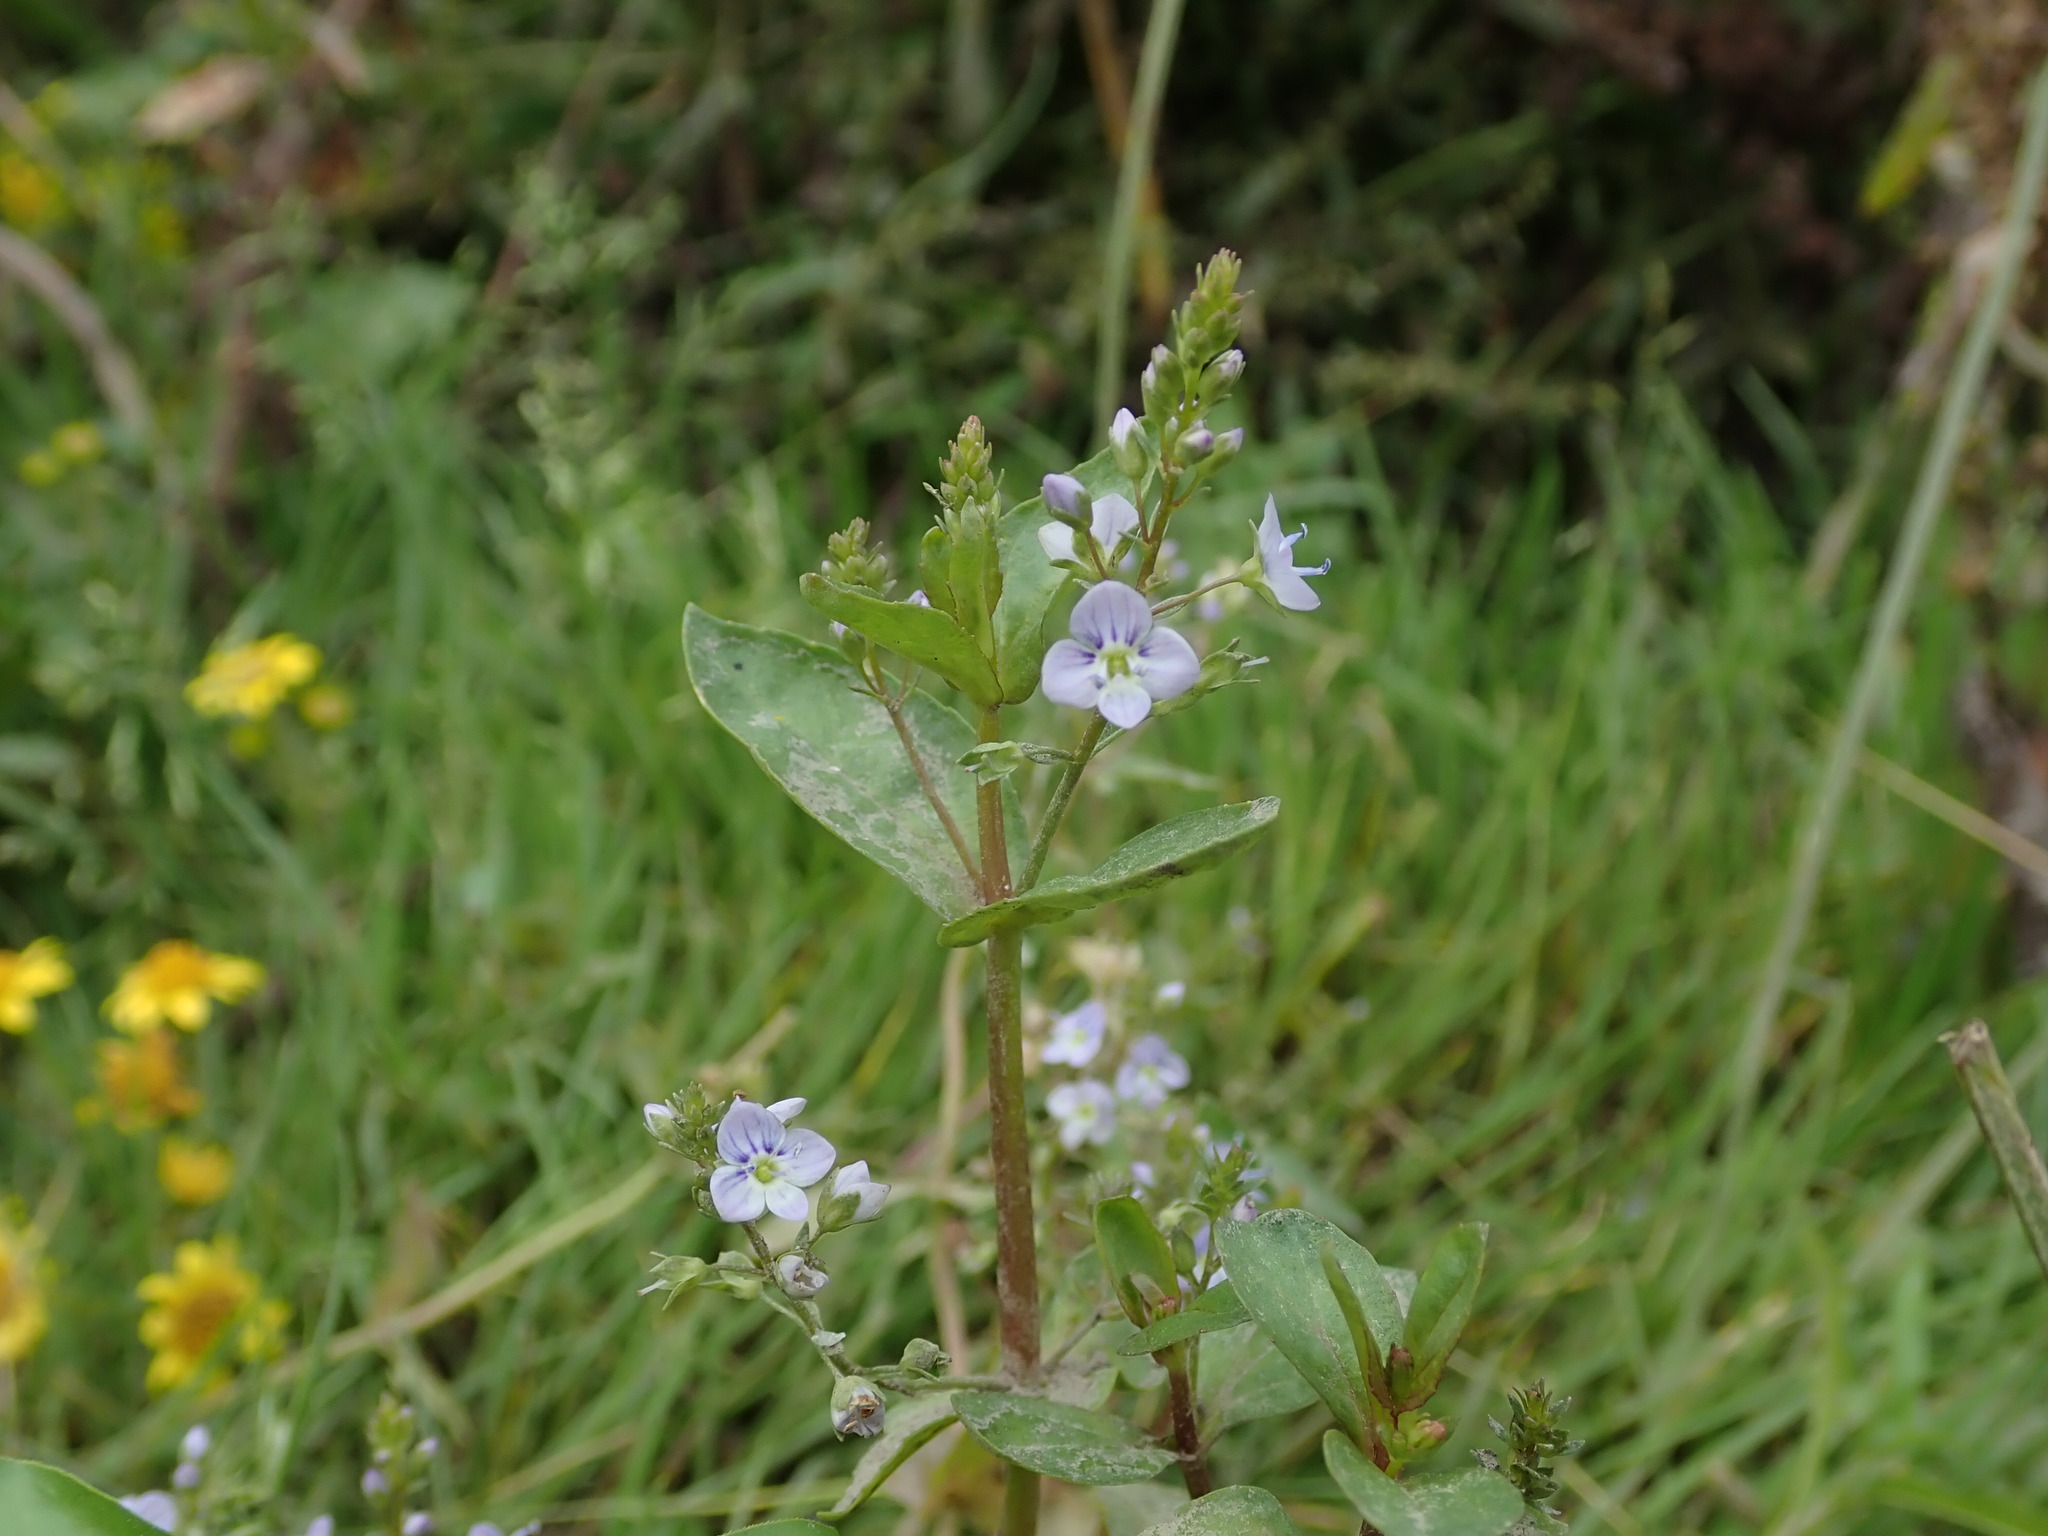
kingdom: Plantae
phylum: Tracheophyta
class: Magnoliopsida
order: Lamiales
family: Plantaginaceae
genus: Veronica
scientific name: Veronica anagallis-aquatica
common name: Water speedwell
